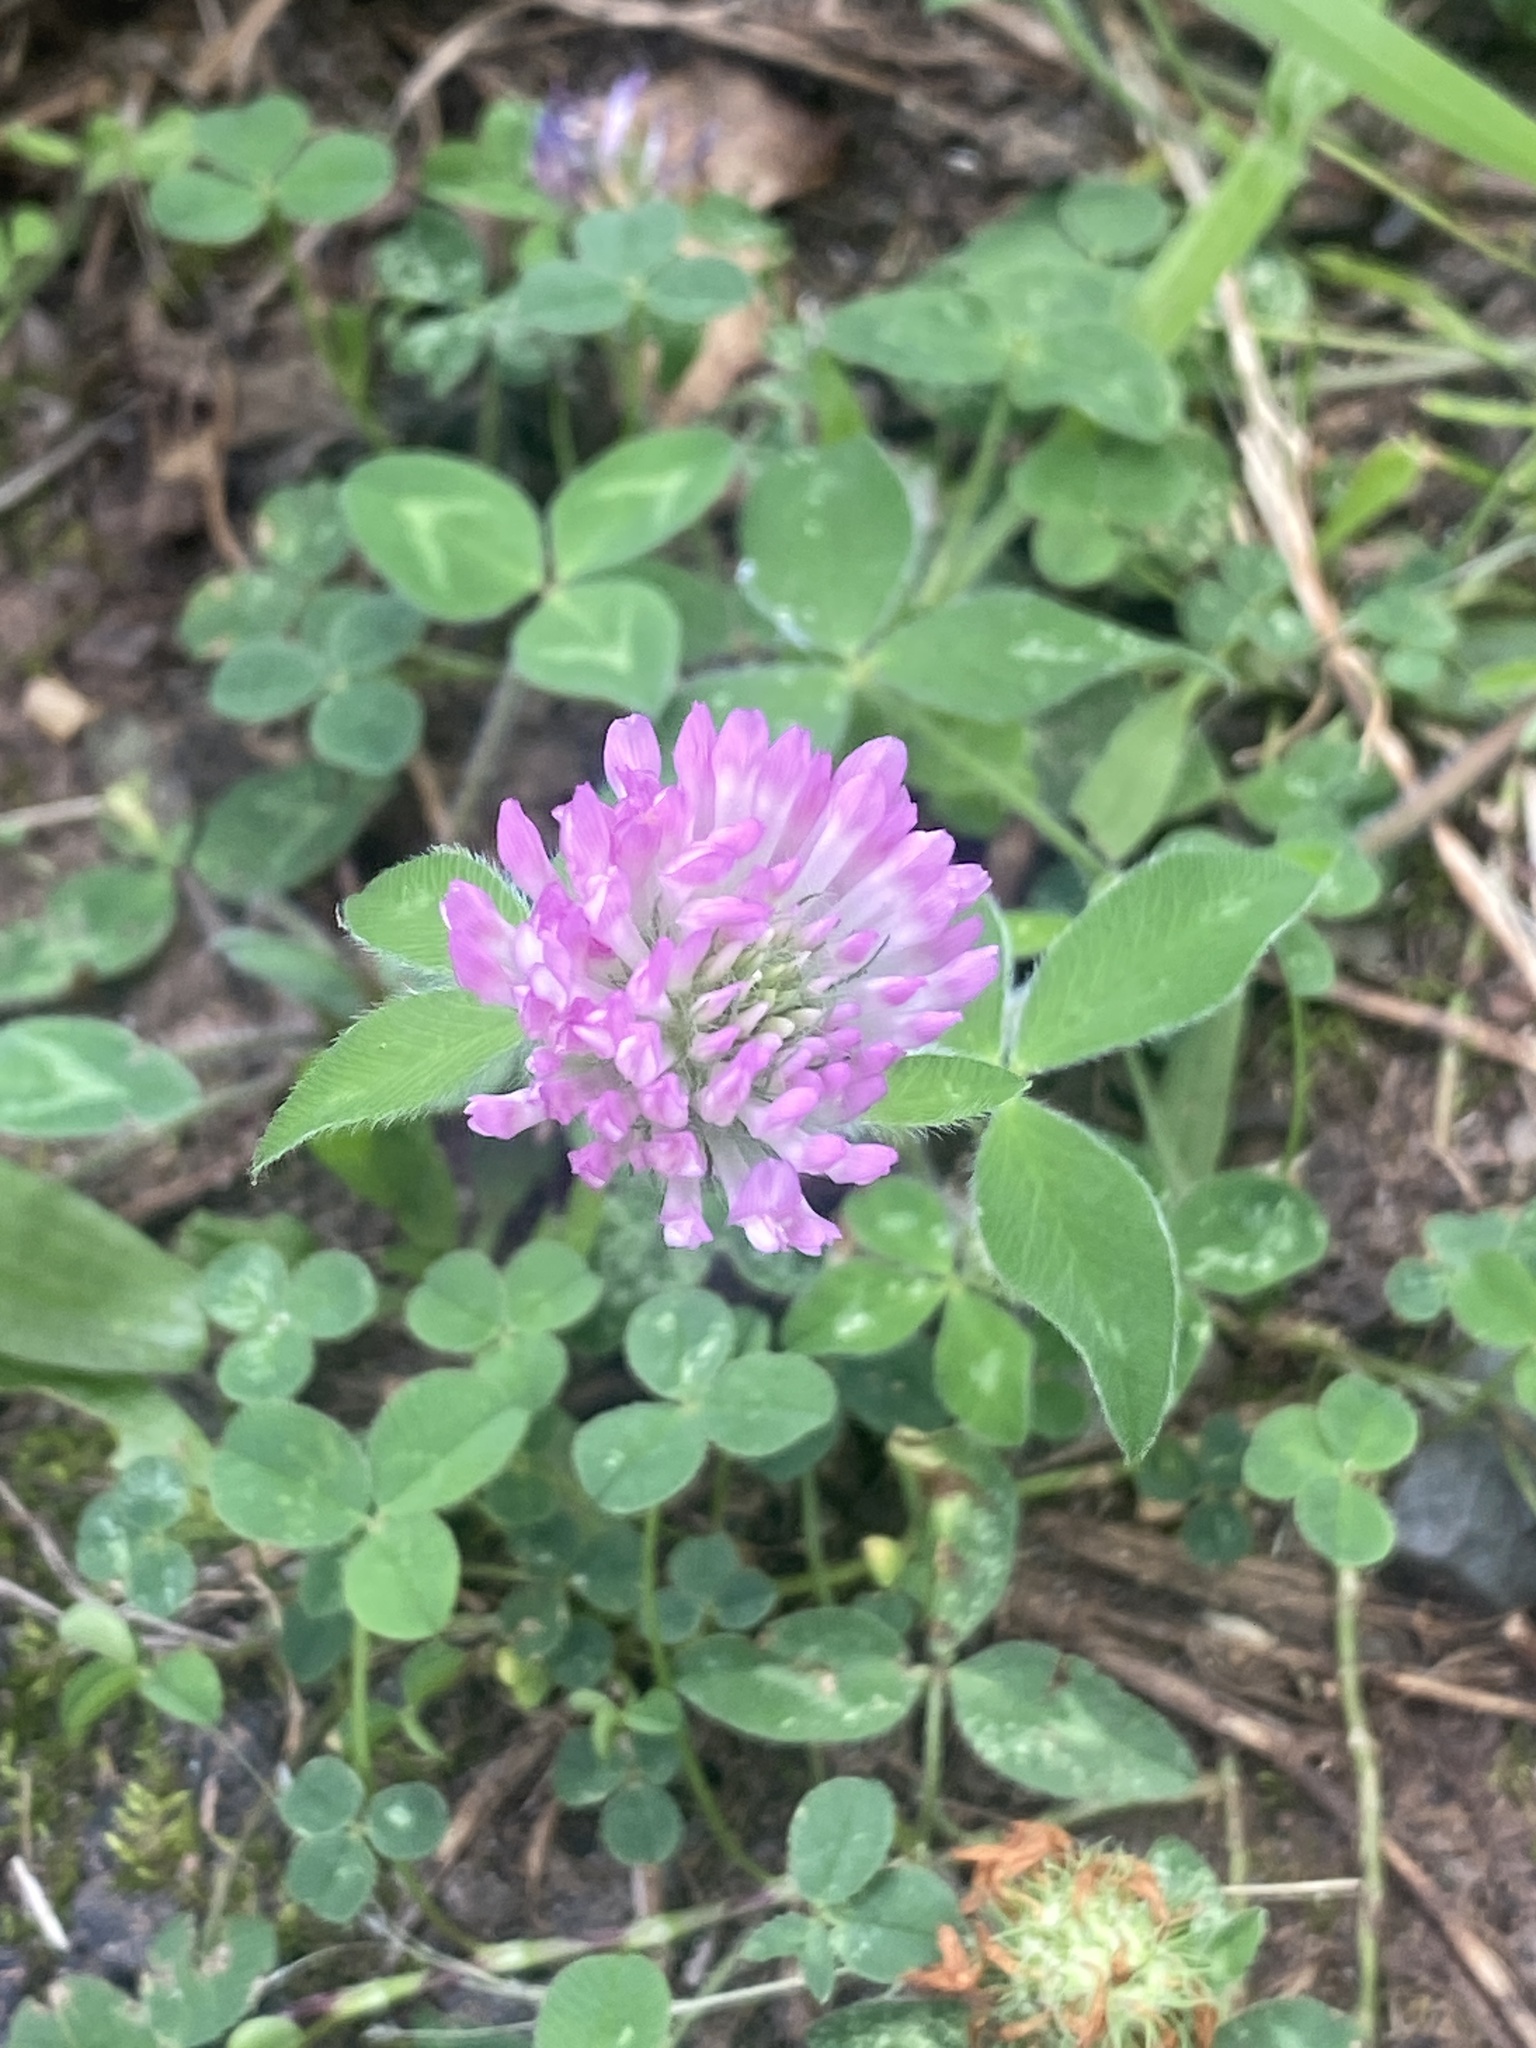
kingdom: Plantae
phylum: Tracheophyta
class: Magnoliopsida
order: Fabales
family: Fabaceae
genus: Trifolium
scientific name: Trifolium pratense
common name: Red clover
